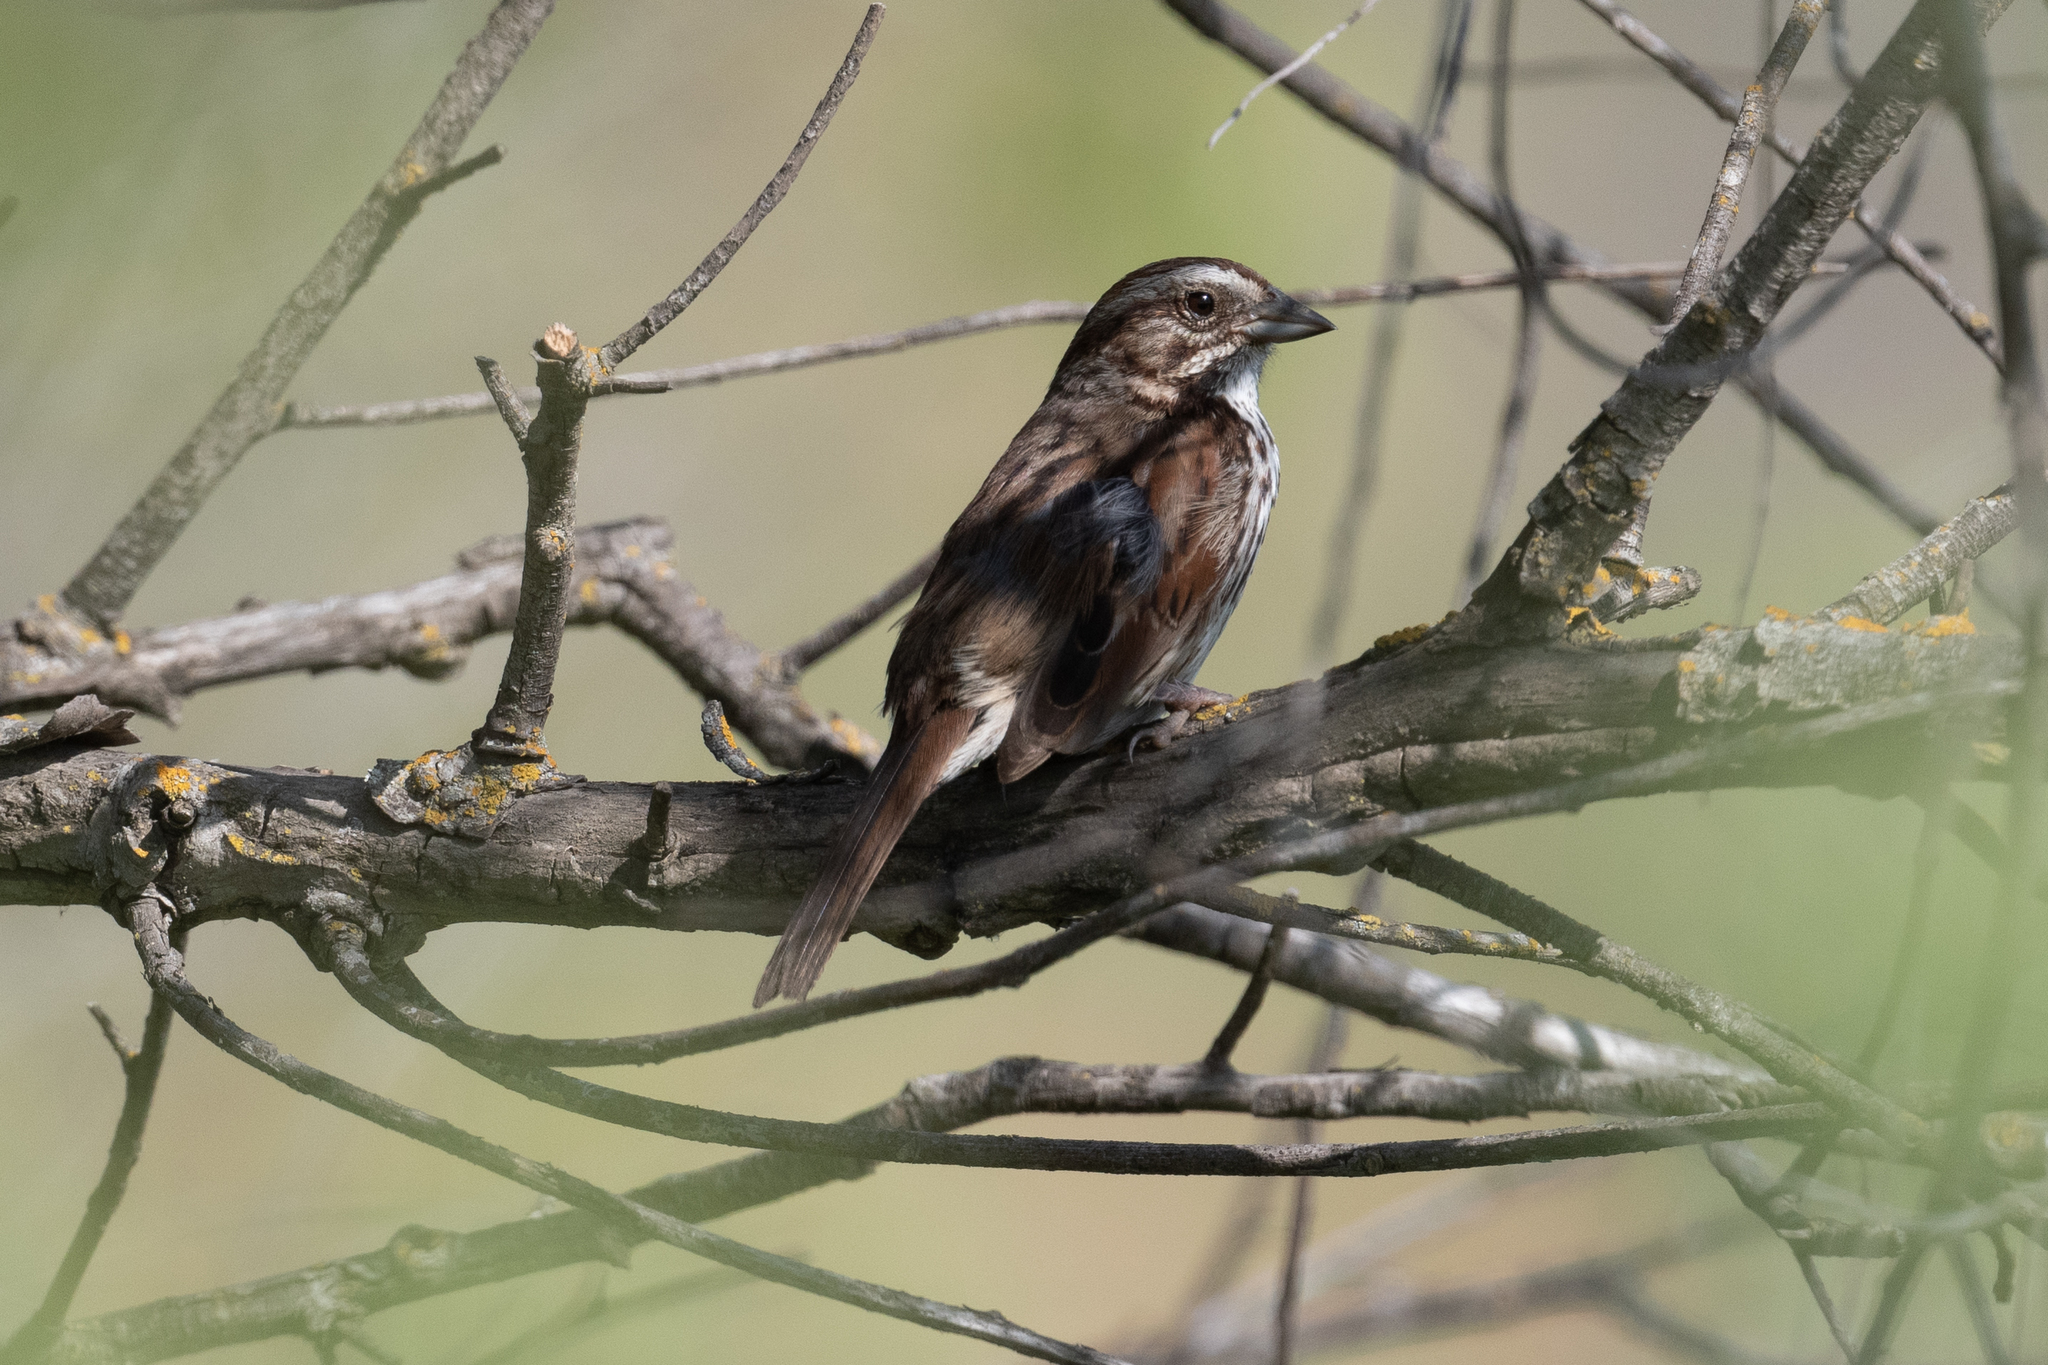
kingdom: Animalia
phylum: Chordata
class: Aves
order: Passeriformes
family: Passerellidae
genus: Melospiza
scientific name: Melospiza melodia
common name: Song sparrow
